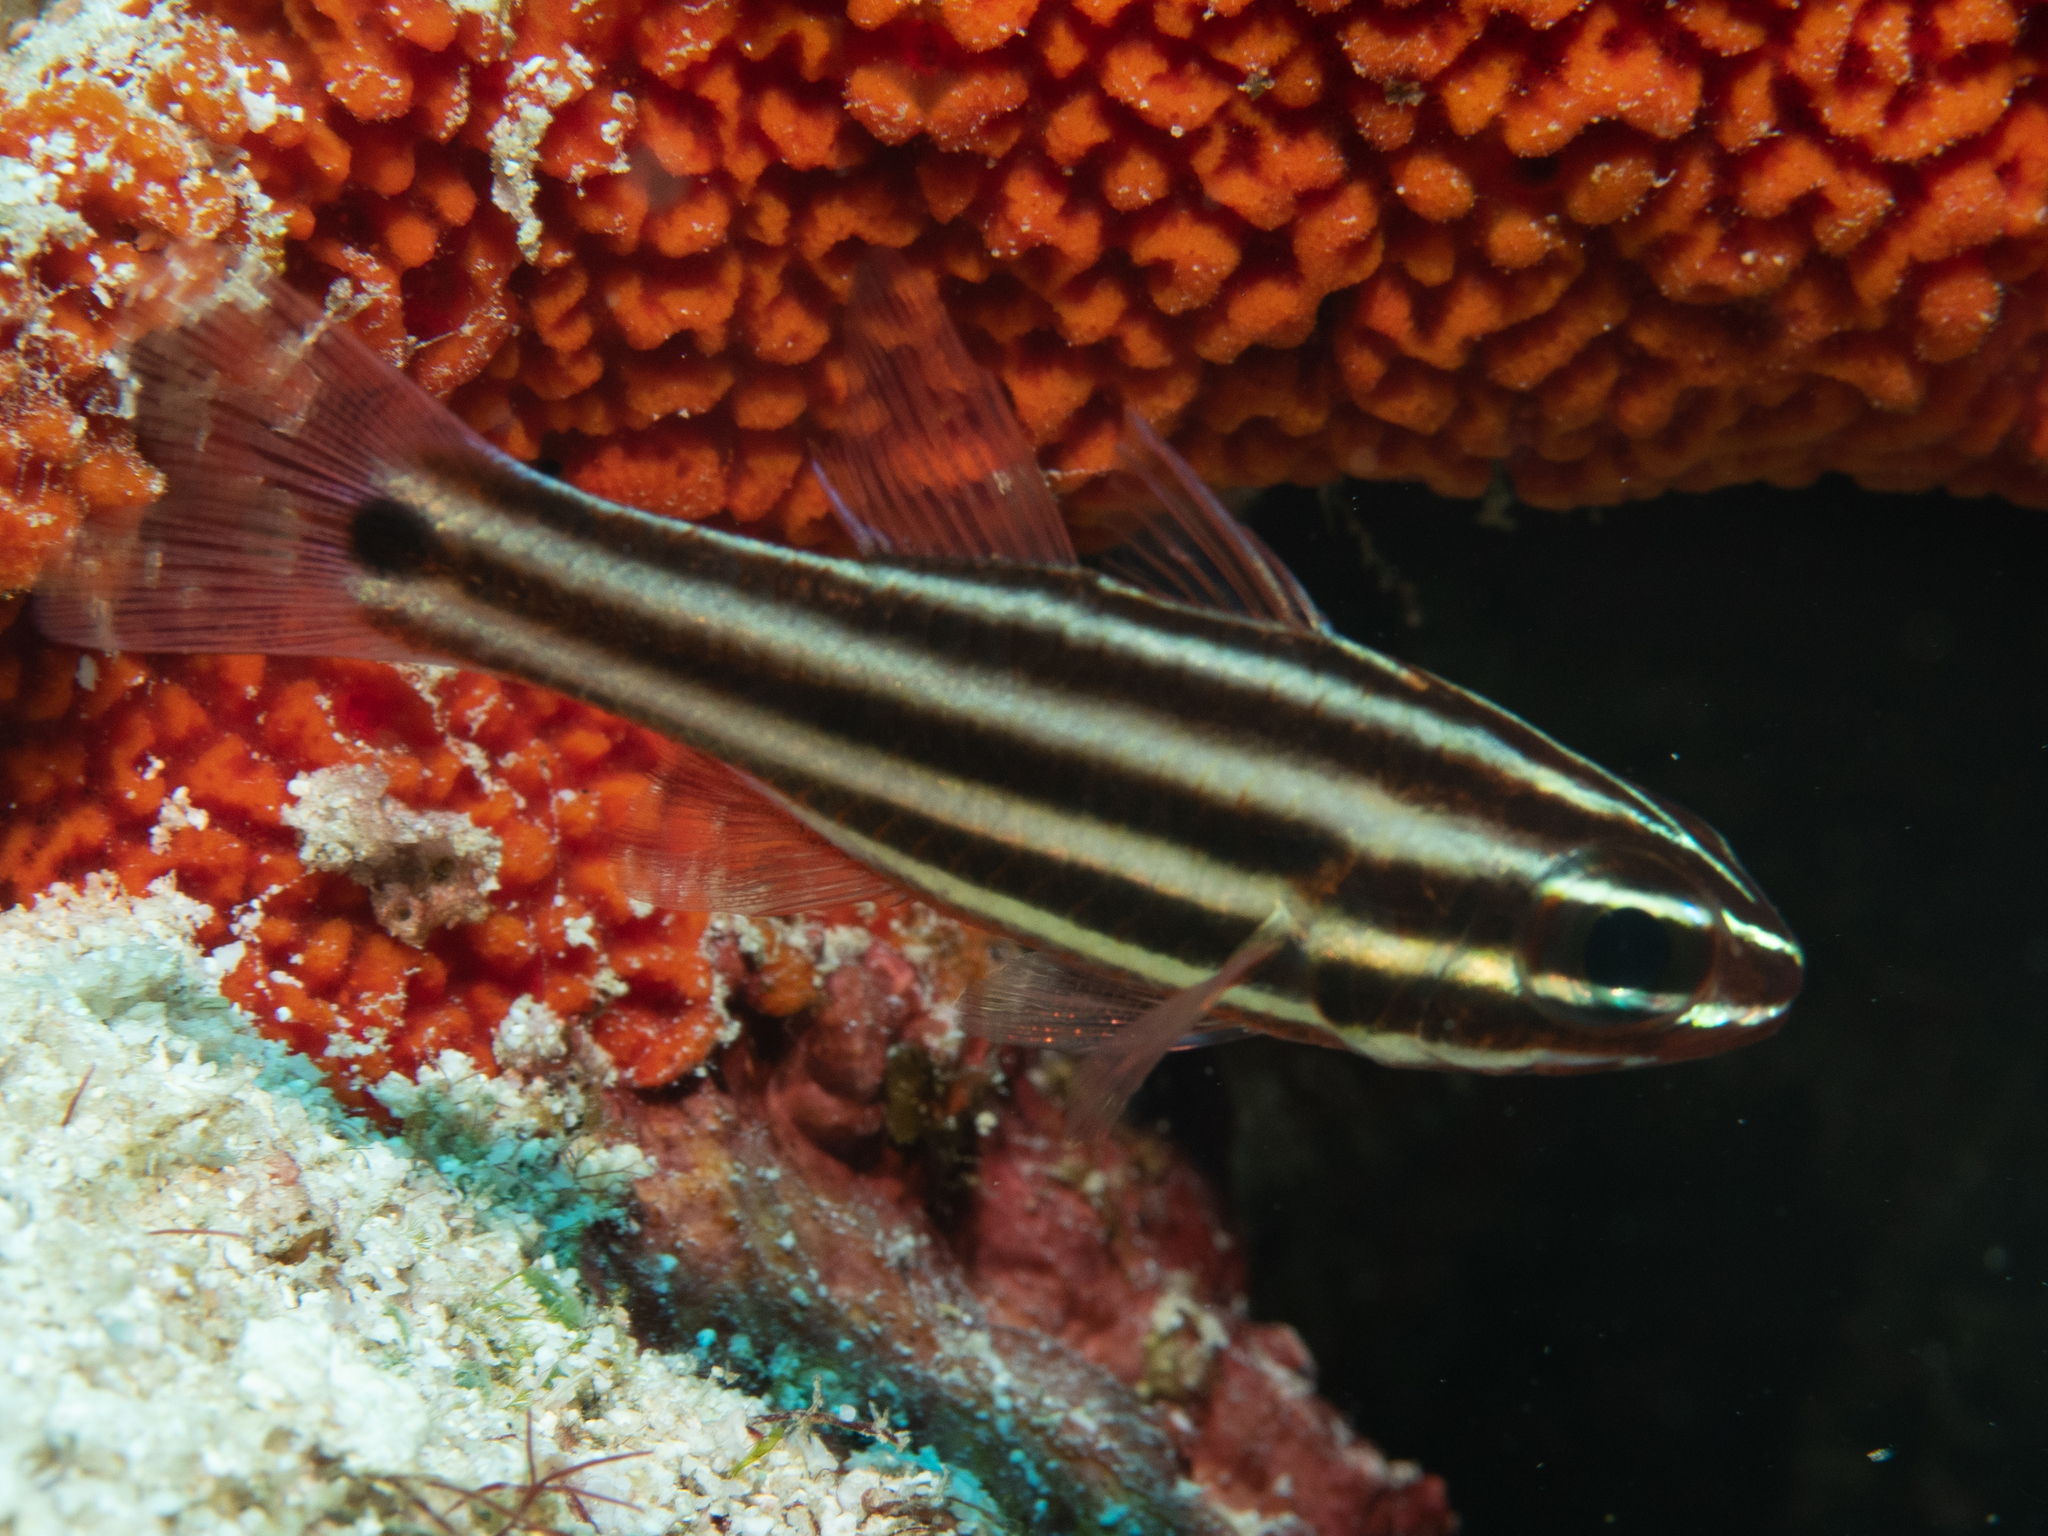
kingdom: Animalia
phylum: Chordata
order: Perciformes
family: Apogonidae
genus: Ostorhinchus
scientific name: Ostorhinchus angustatus
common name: Narrow-striped cardinalfish
